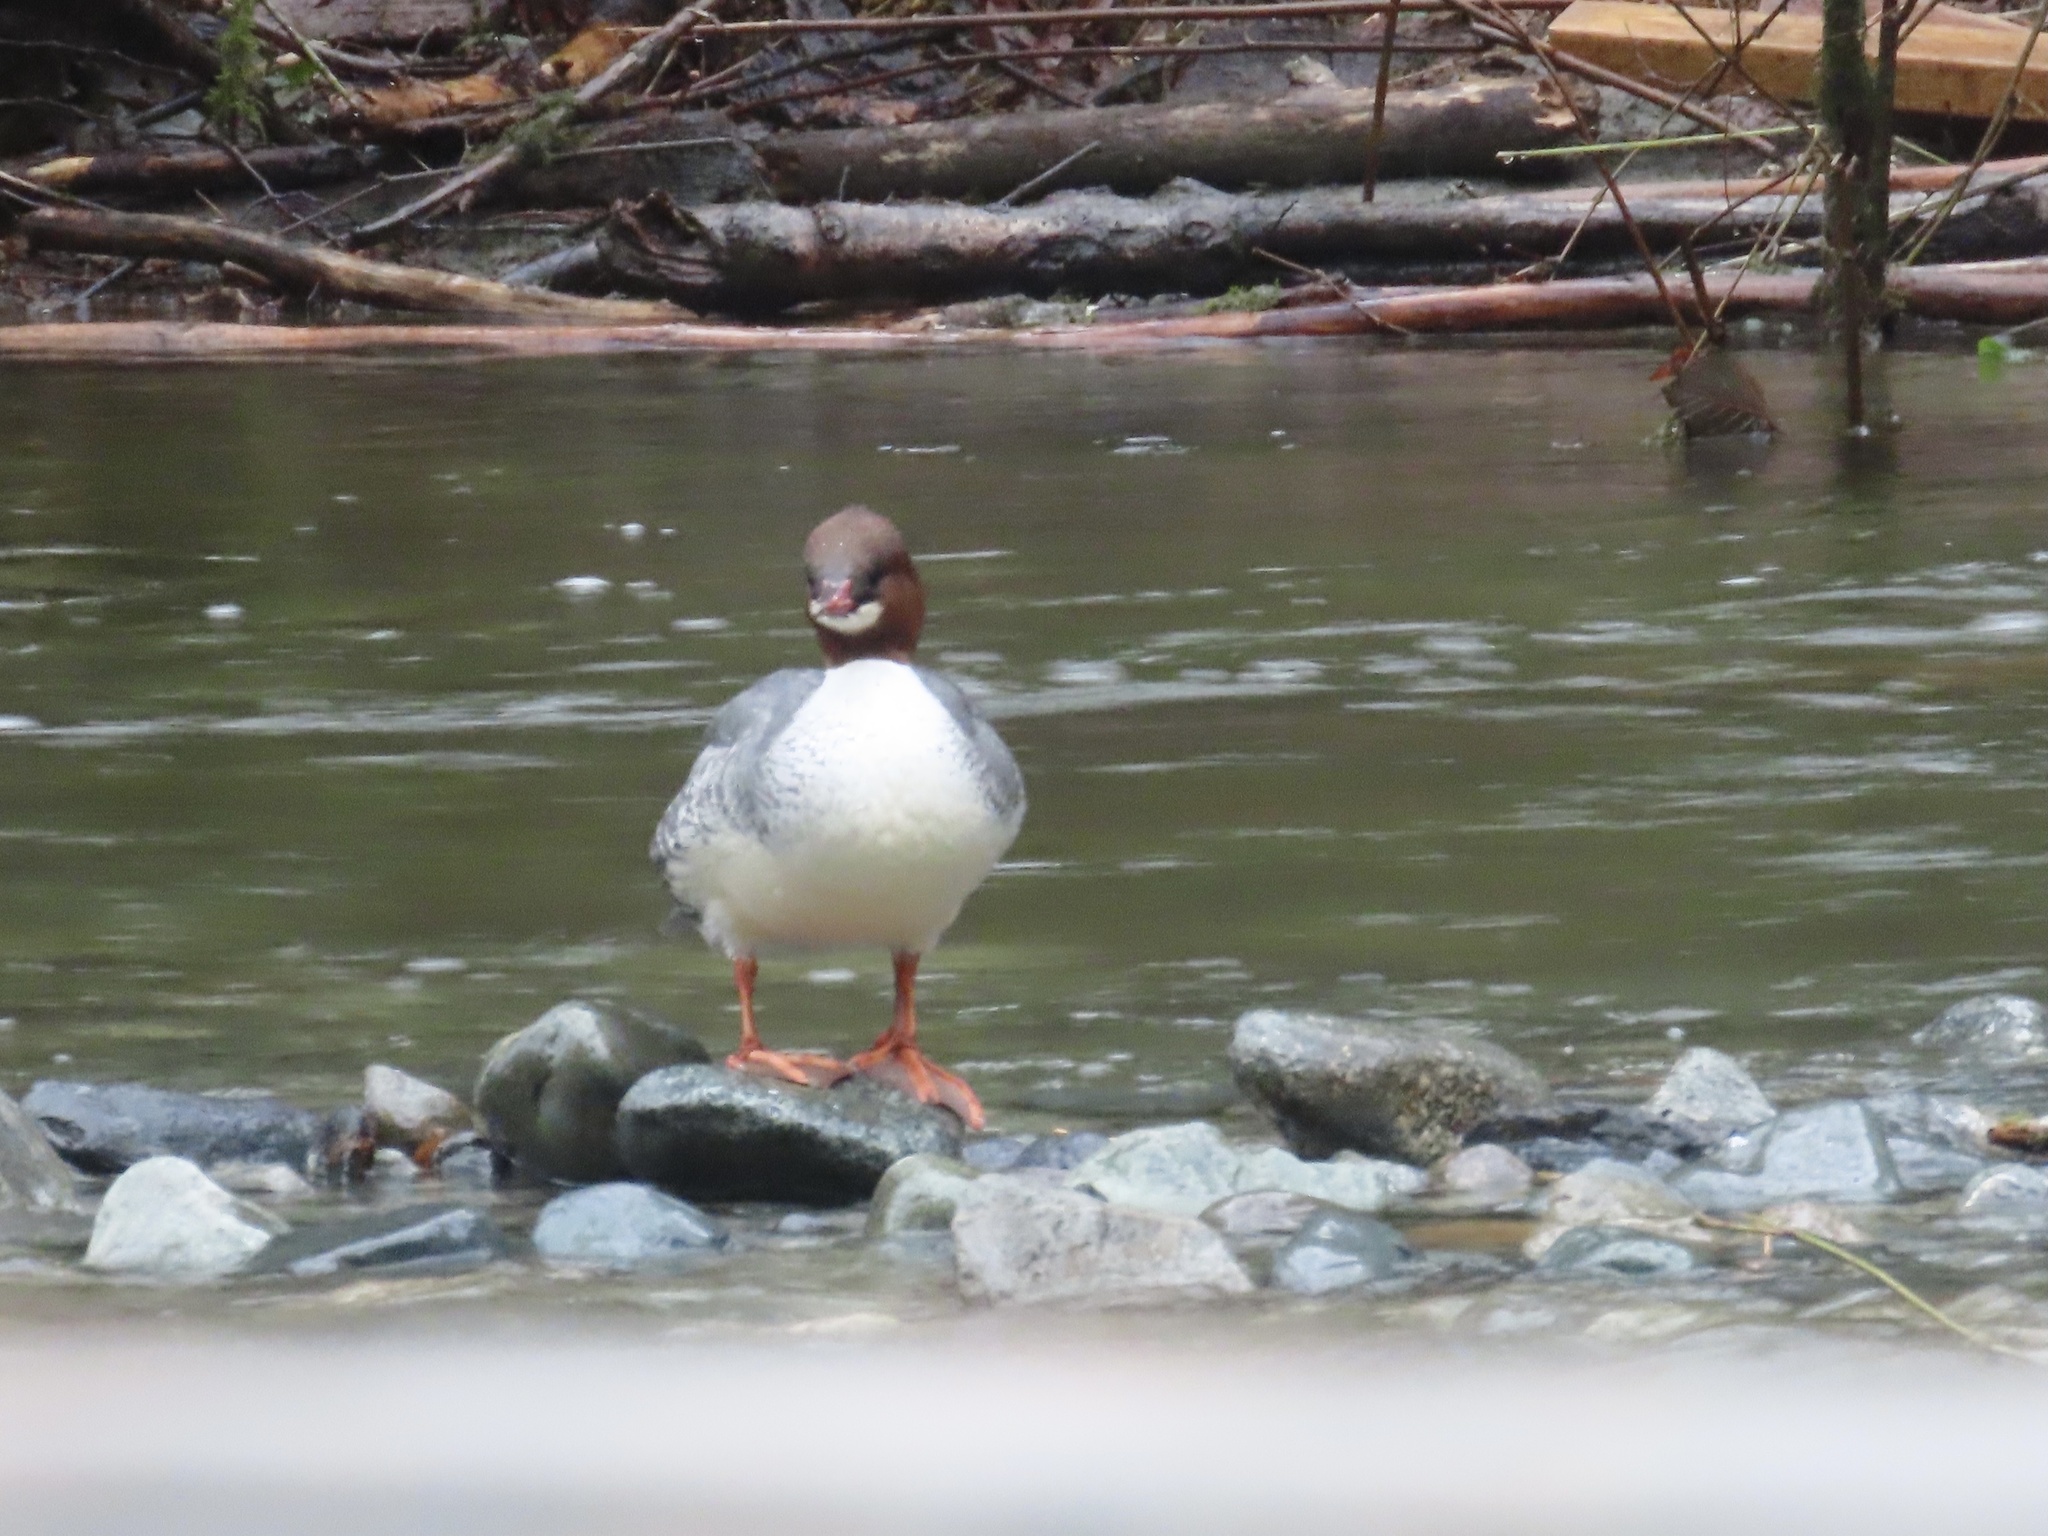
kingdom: Animalia
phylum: Chordata
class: Aves
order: Anseriformes
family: Anatidae
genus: Mergus
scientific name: Mergus merganser
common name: Common merganser
